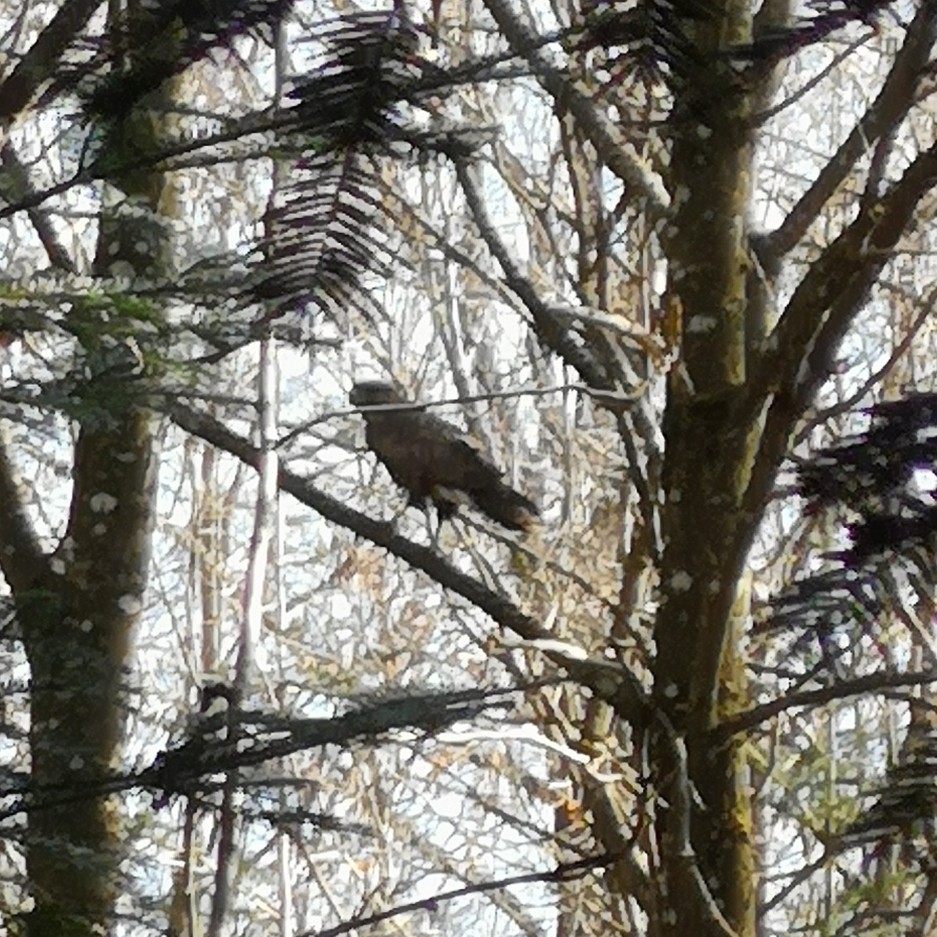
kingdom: Animalia
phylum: Chordata
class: Aves
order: Accipitriformes
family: Accipitridae
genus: Milvus
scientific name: Milvus migrans
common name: Black kite
